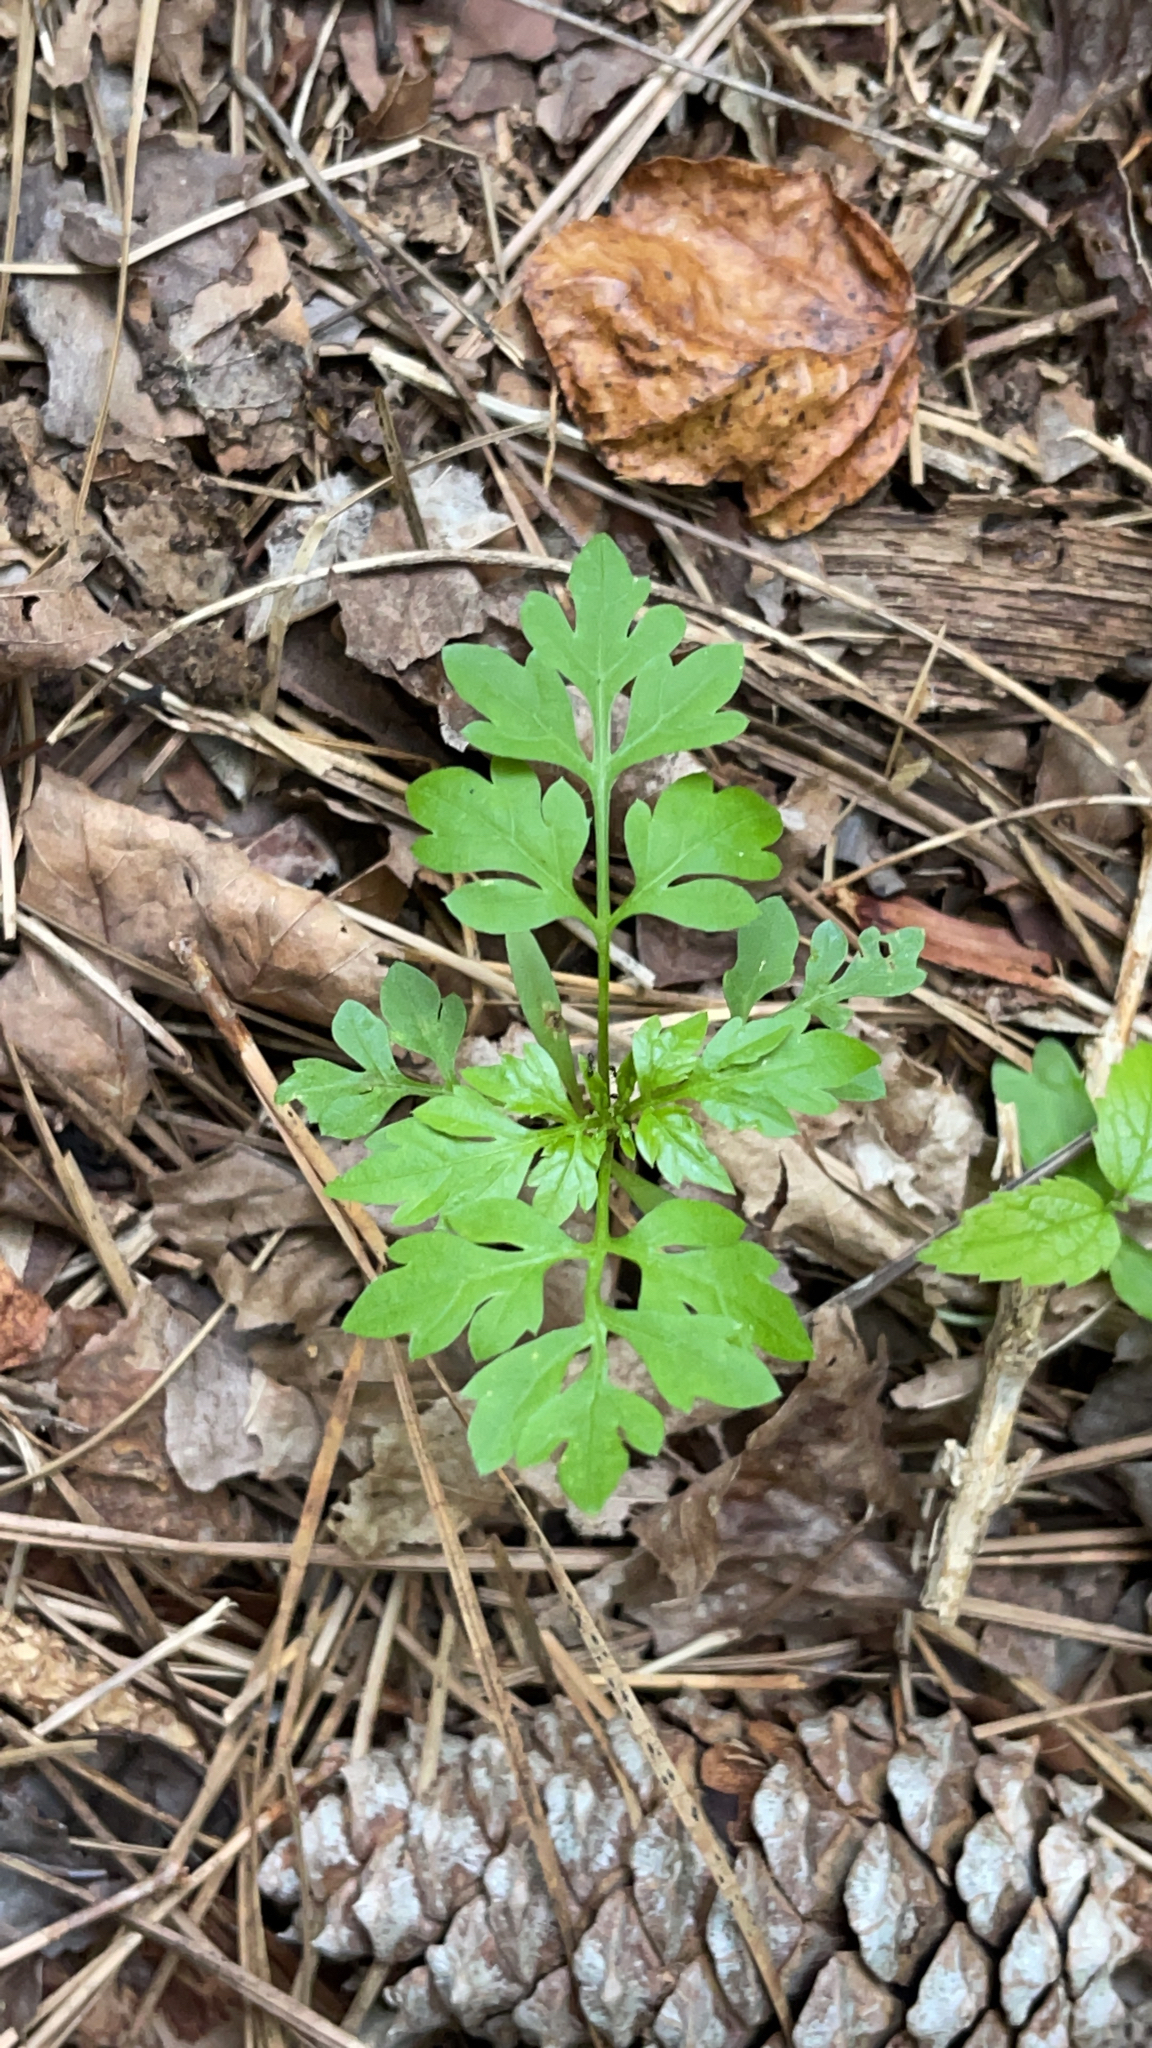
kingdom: Plantae
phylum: Tracheophyta
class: Magnoliopsida
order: Asterales
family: Asteraceae
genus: Bidens
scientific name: Bidens bipinnata
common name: Spanish-needles
